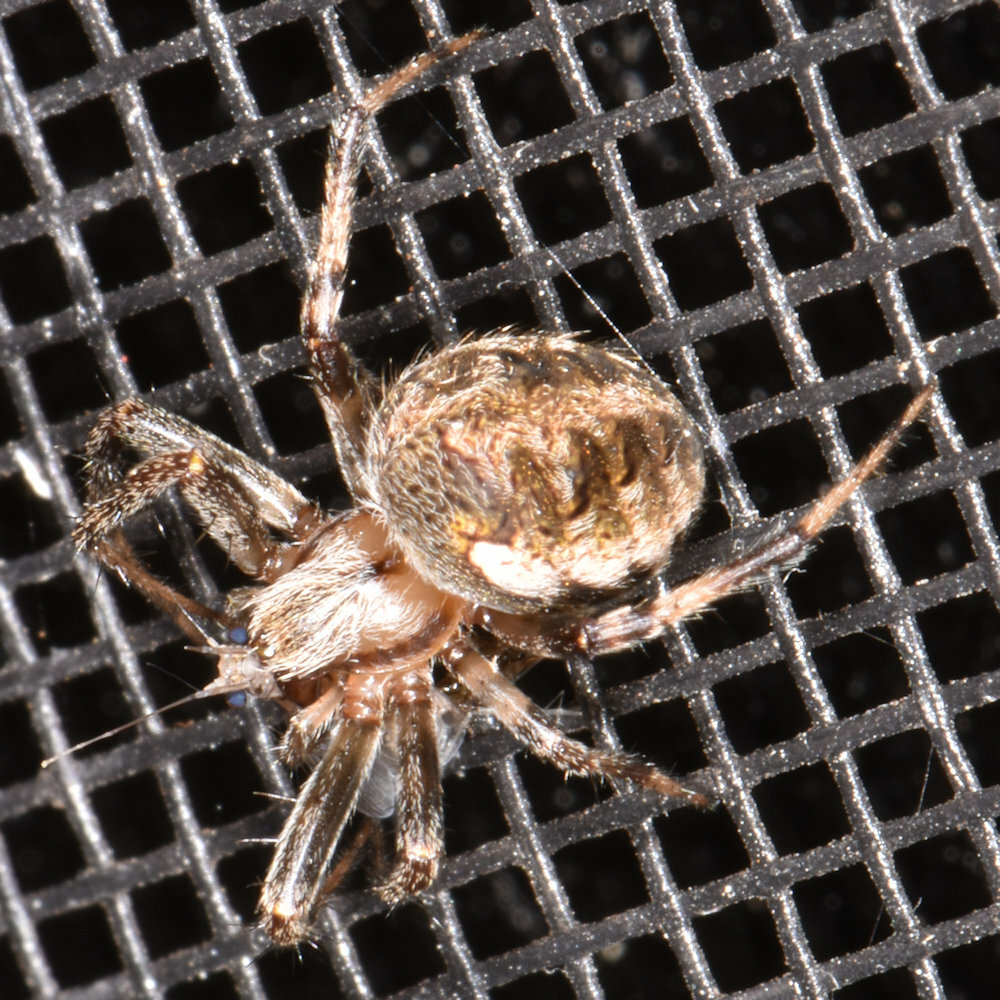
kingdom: Animalia
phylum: Arthropoda
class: Arachnida
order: Araneae
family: Araneidae
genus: Neoscona
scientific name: Neoscona arabesca
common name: Orb weavers
